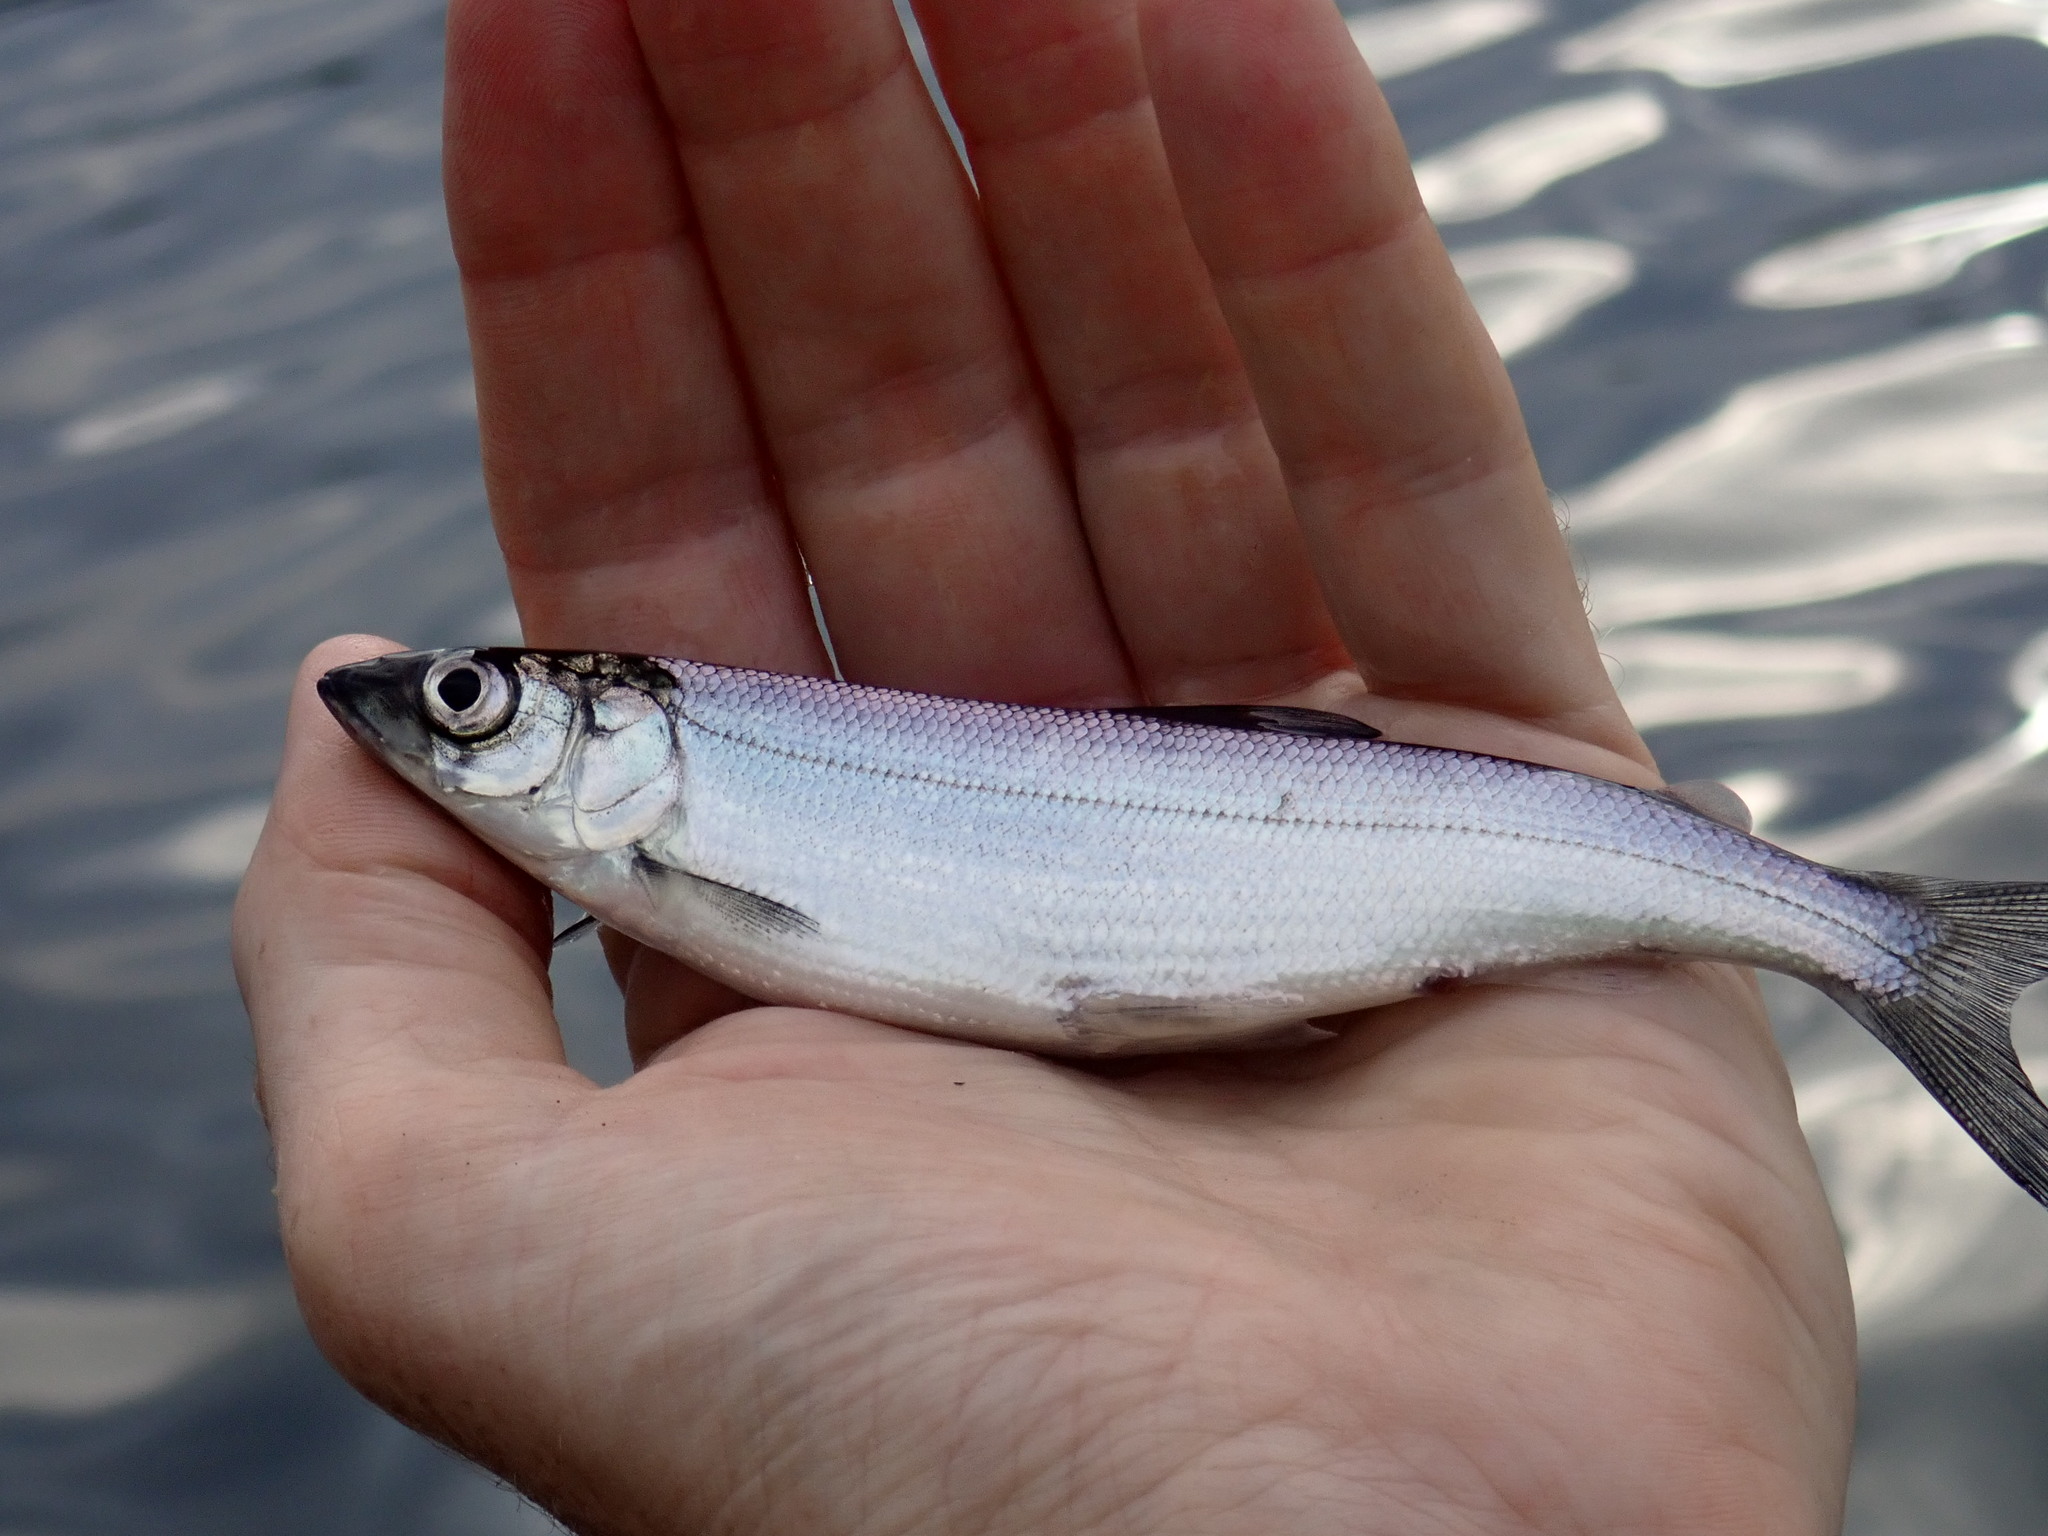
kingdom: Animalia
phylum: Chordata
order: Salmoniformes
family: Salmonidae
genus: Coregonus
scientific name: Coregonus artedi
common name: Cisco
